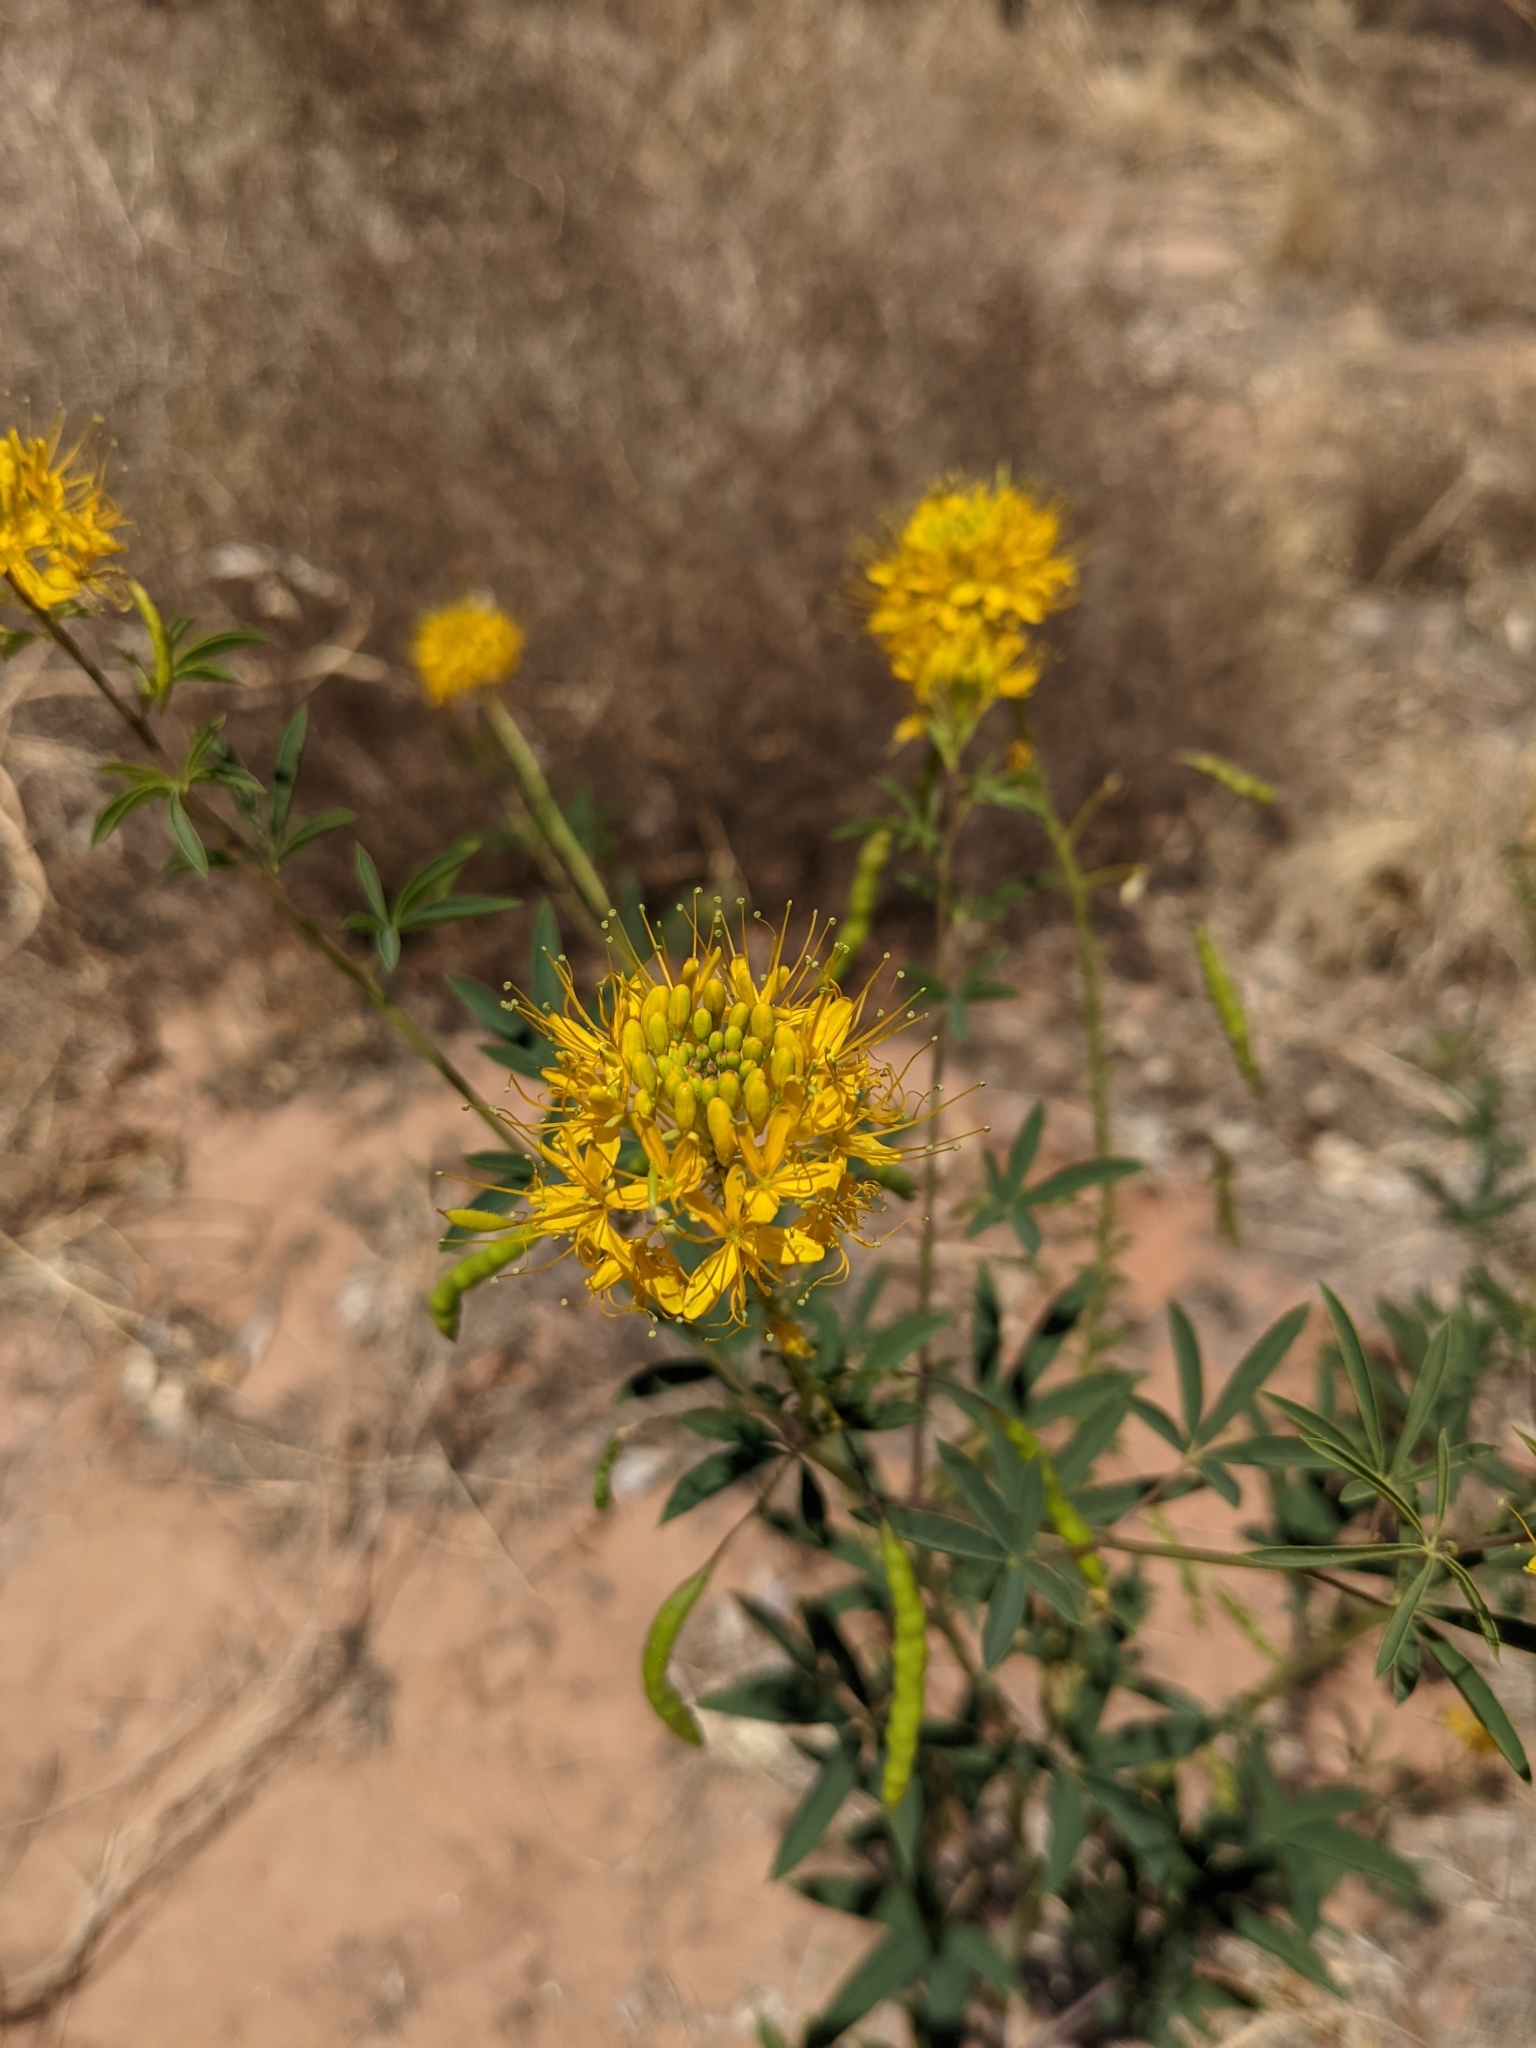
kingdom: Plantae
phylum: Tracheophyta
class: Magnoliopsida
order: Brassicales
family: Cleomaceae
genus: Cleomella
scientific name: Cleomella lutea
